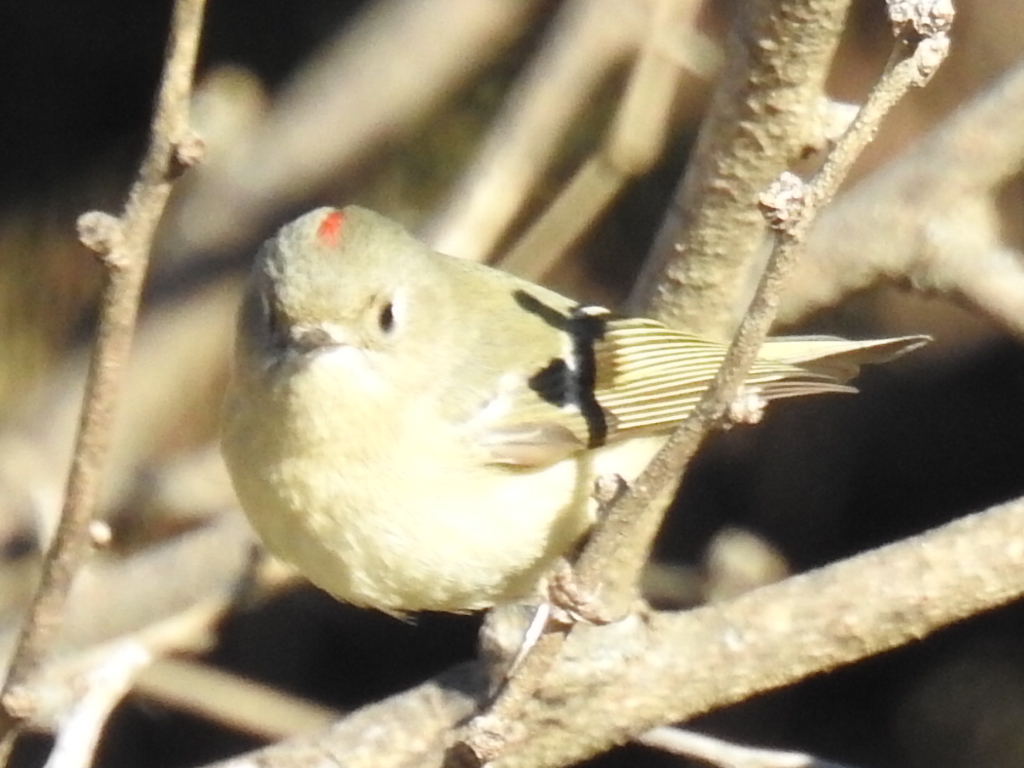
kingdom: Animalia
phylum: Chordata
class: Aves
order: Passeriformes
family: Regulidae
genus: Regulus
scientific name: Regulus calendula
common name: Ruby-crowned kinglet
